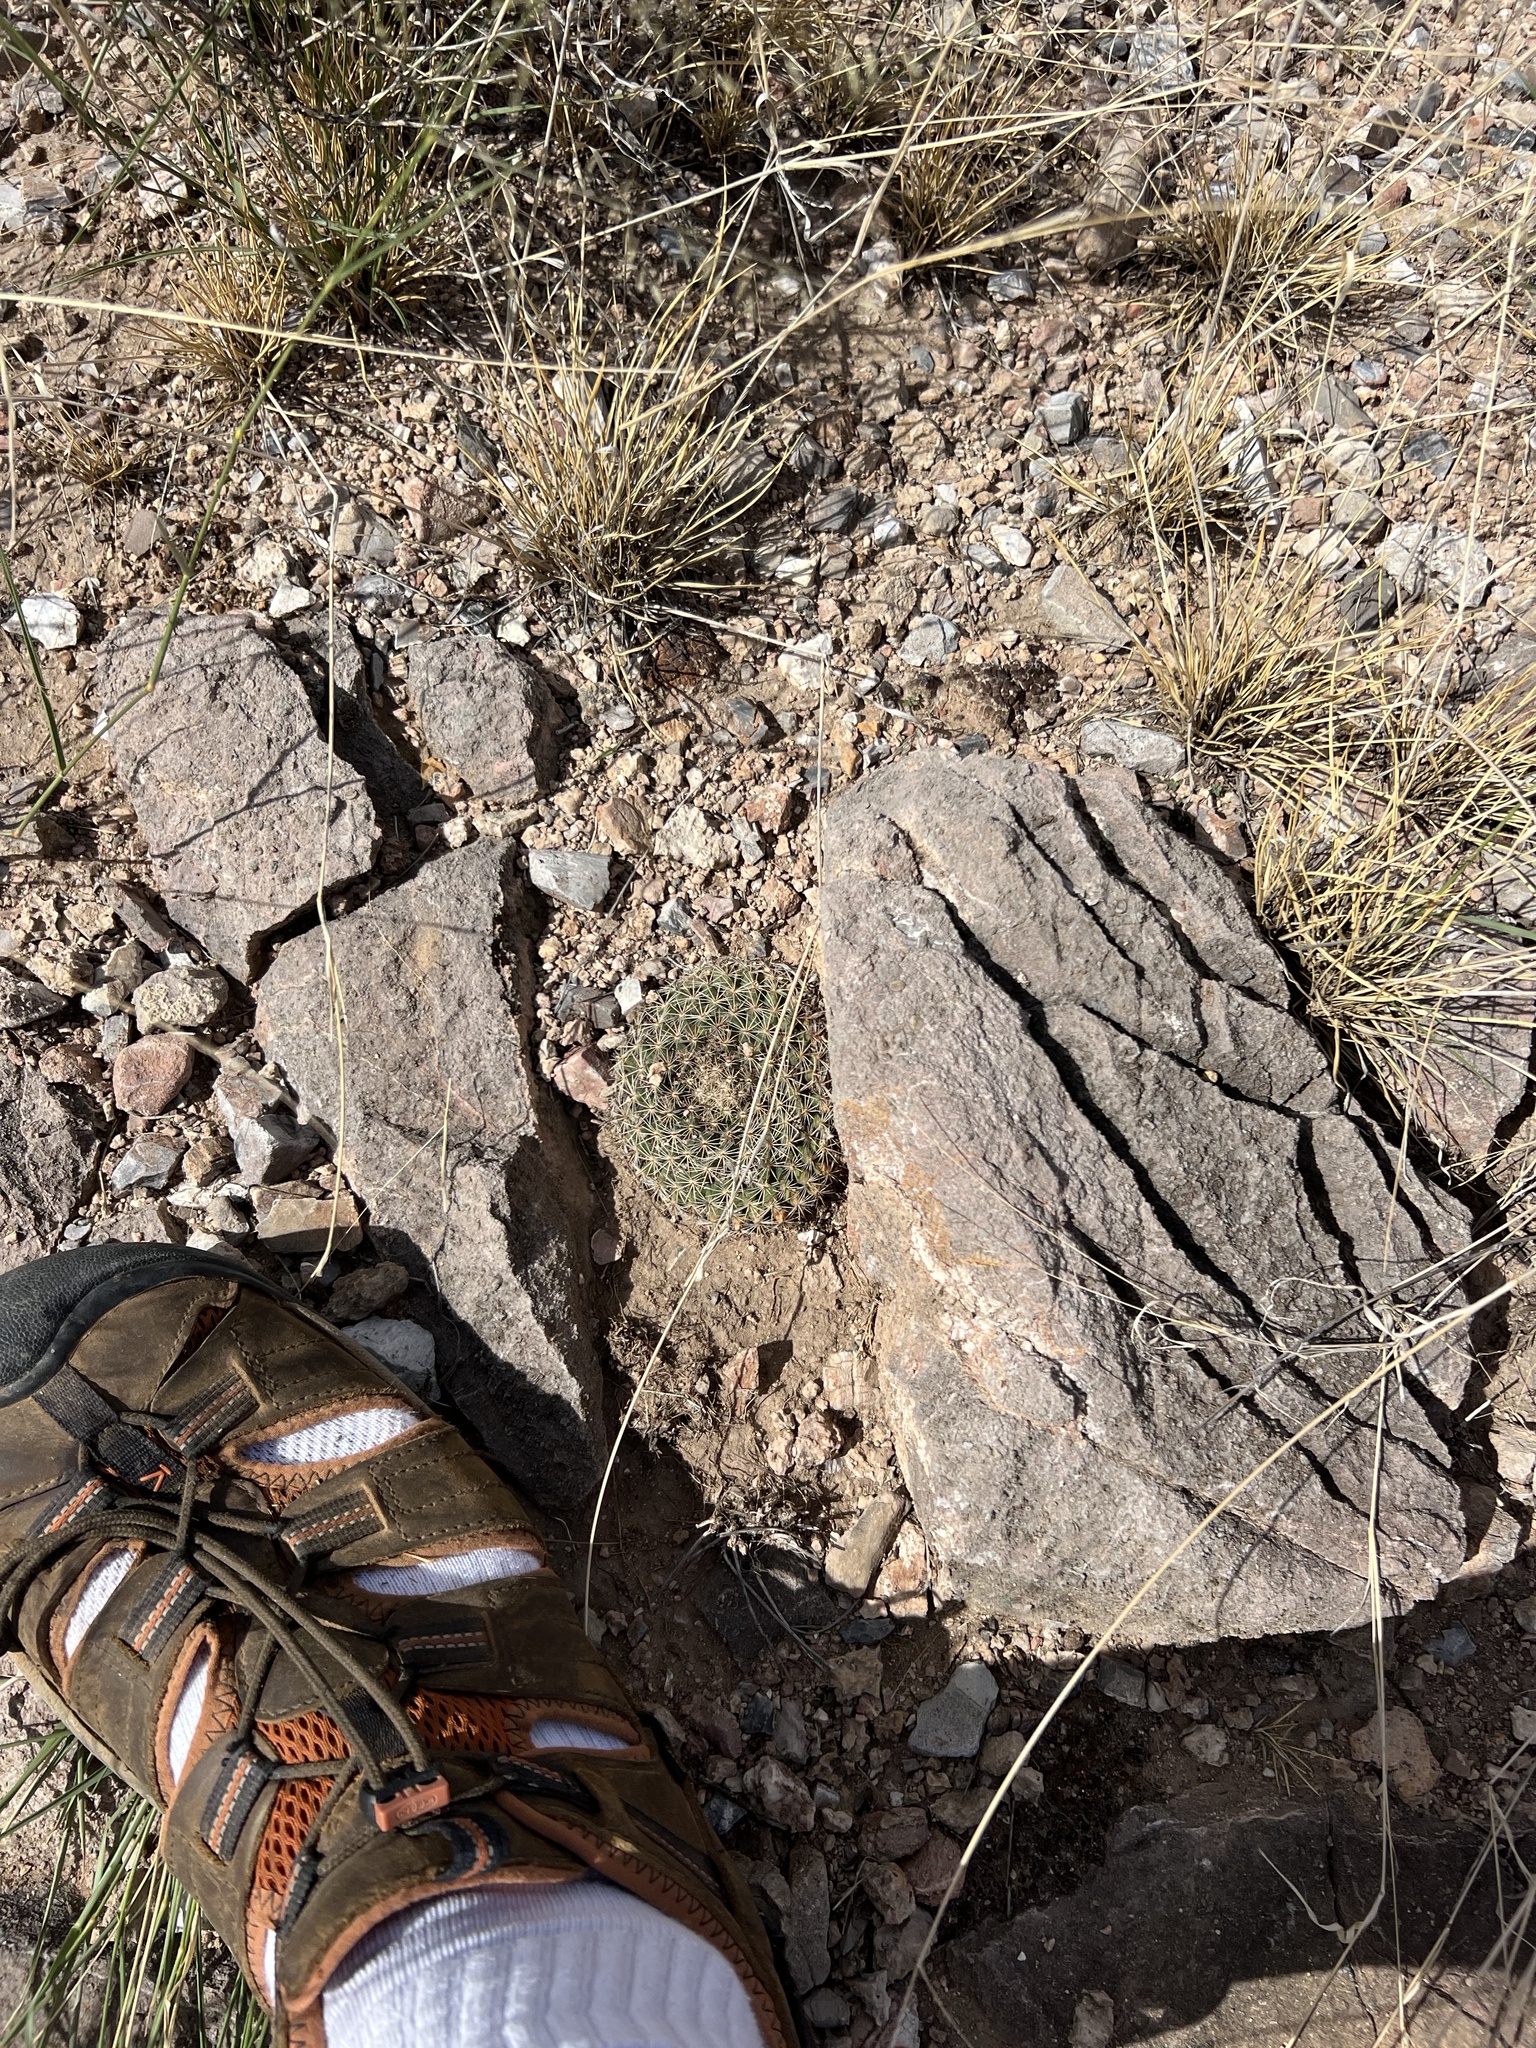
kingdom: Plantae
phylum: Tracheophyta
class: Magnoliopsida
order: Caryophyllales
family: Cactaceae
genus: Mammillaria
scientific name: Mammillaria heyderi
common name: Little nipple cactus
